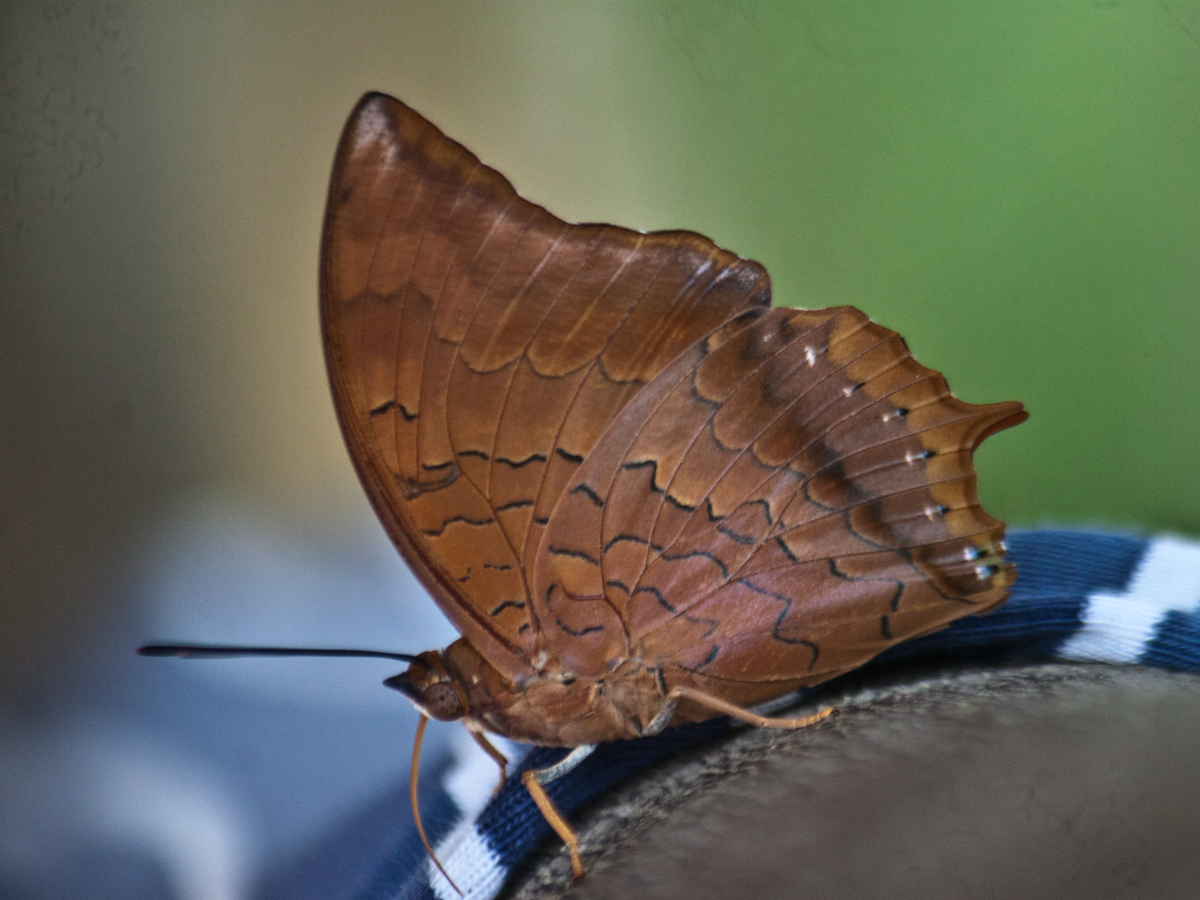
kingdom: Animalia
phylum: Arthropoda
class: Insecta
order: Lepidoptera
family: Nymphalidae
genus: Charaxes
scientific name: Charaxes bernardus
